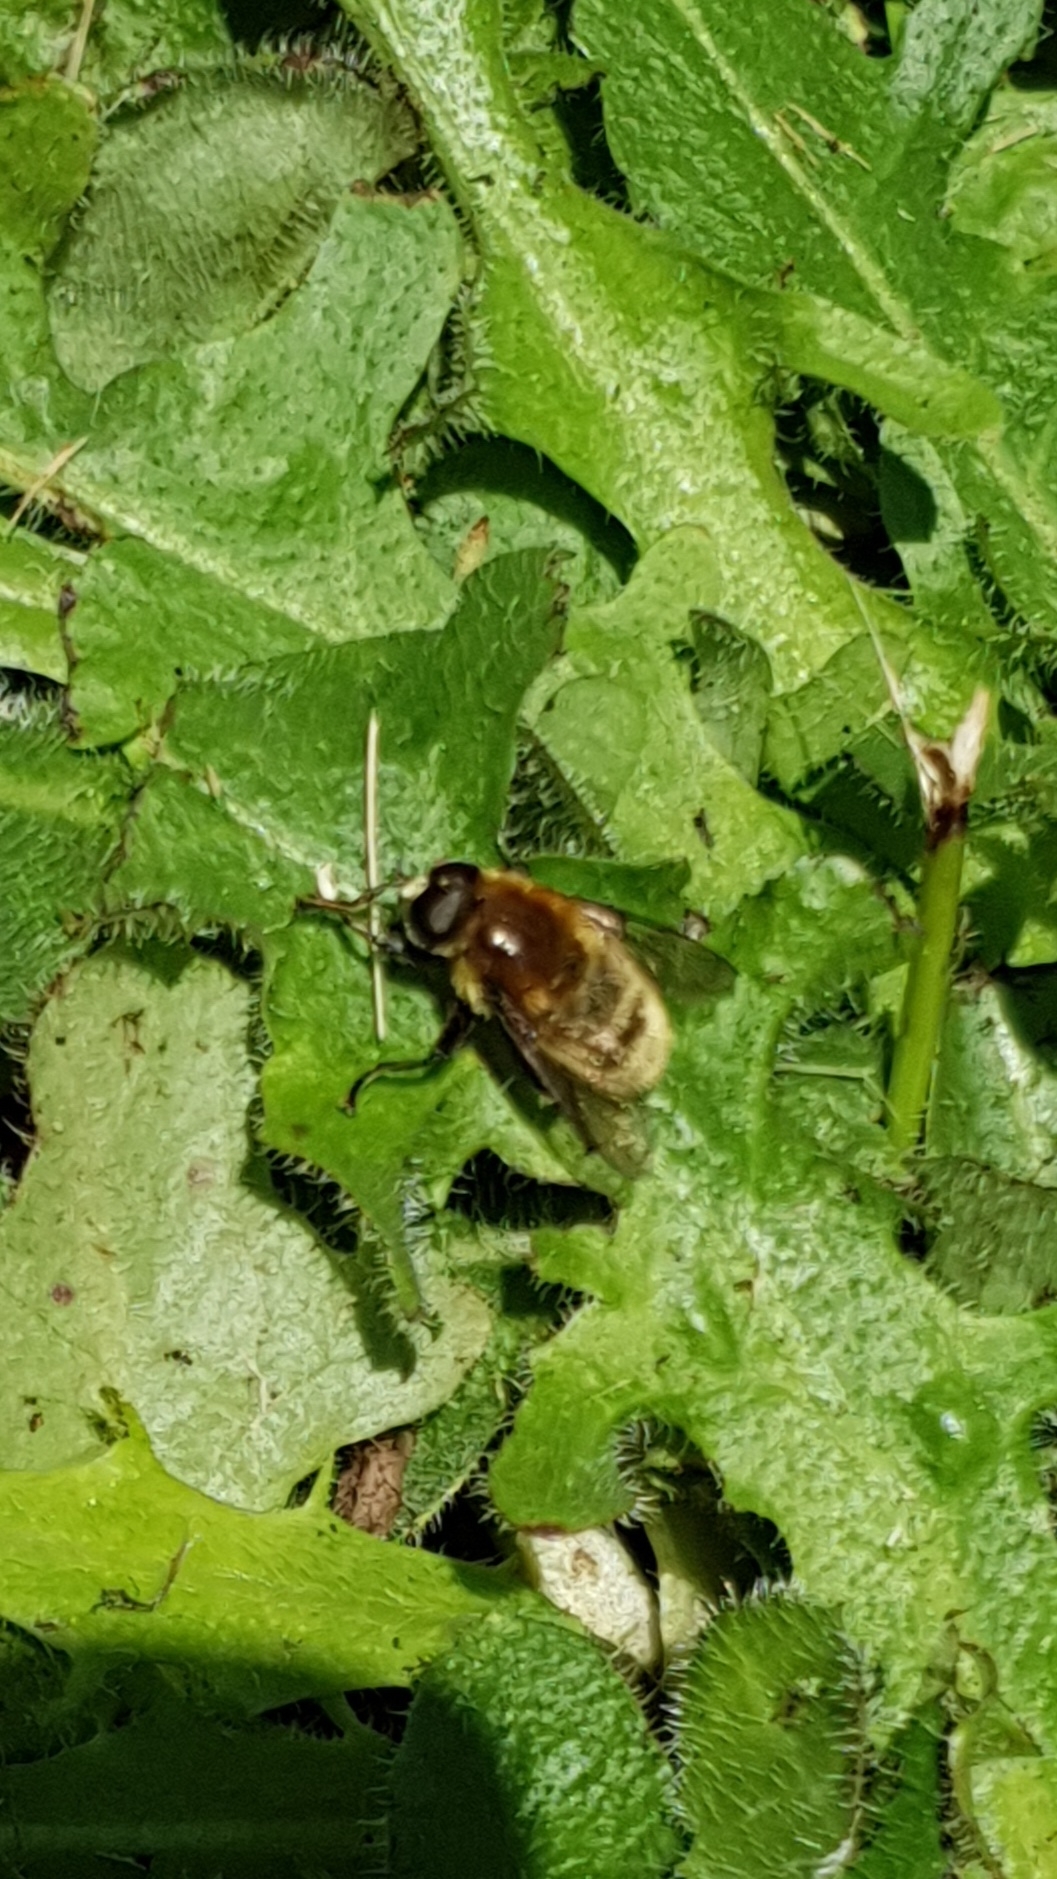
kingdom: Animalia
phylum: Arthropoda
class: Insecta
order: Diptera
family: Syrphidae
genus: Merodon
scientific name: Merodon equestris
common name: Greater bulb-fly
